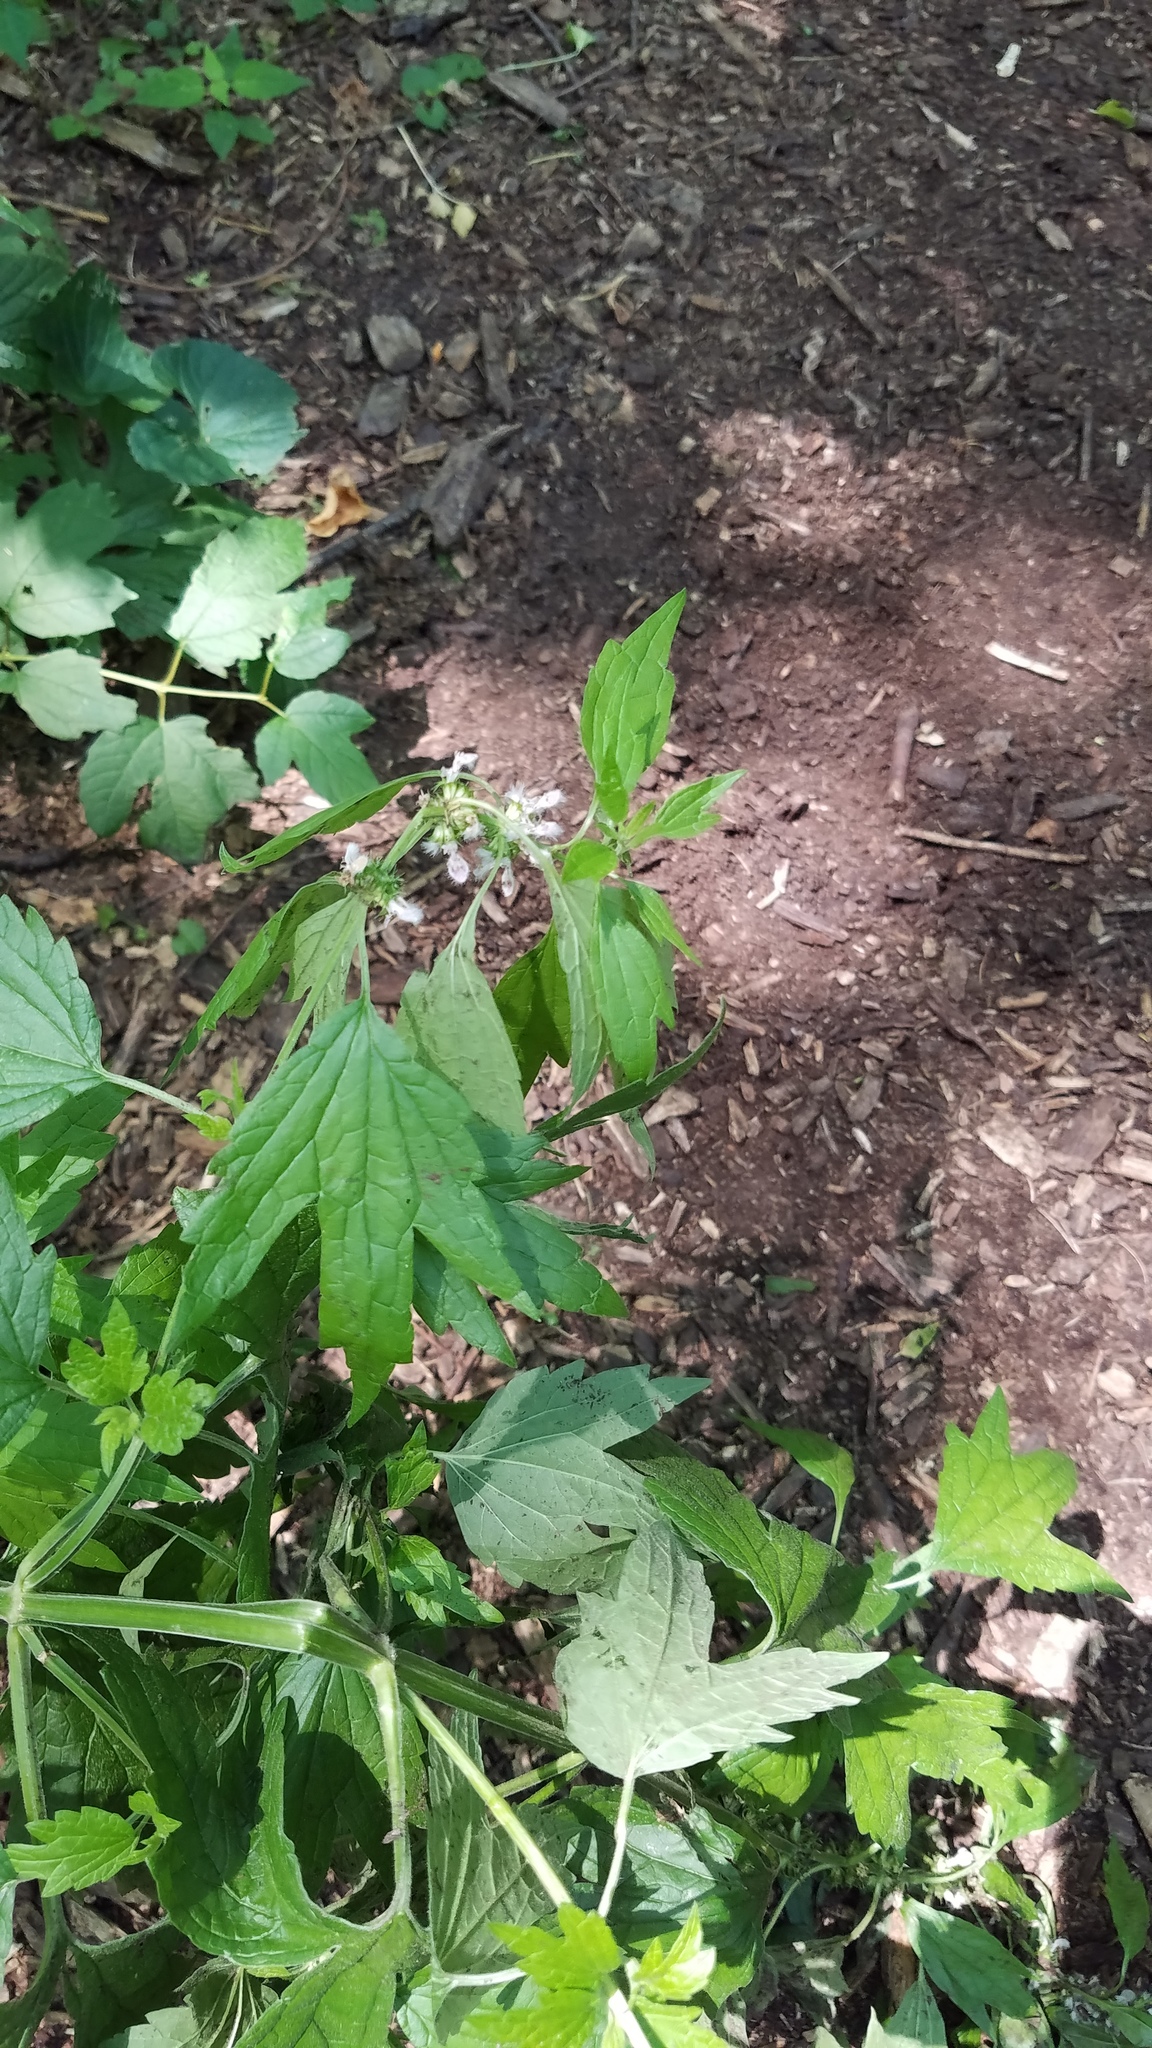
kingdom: Plantae
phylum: Tracheophyta
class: Magnoliopsida
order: Lamiales
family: Lamiaceae
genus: Leonurus
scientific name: Leonurus cardiaca
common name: Motherwort
